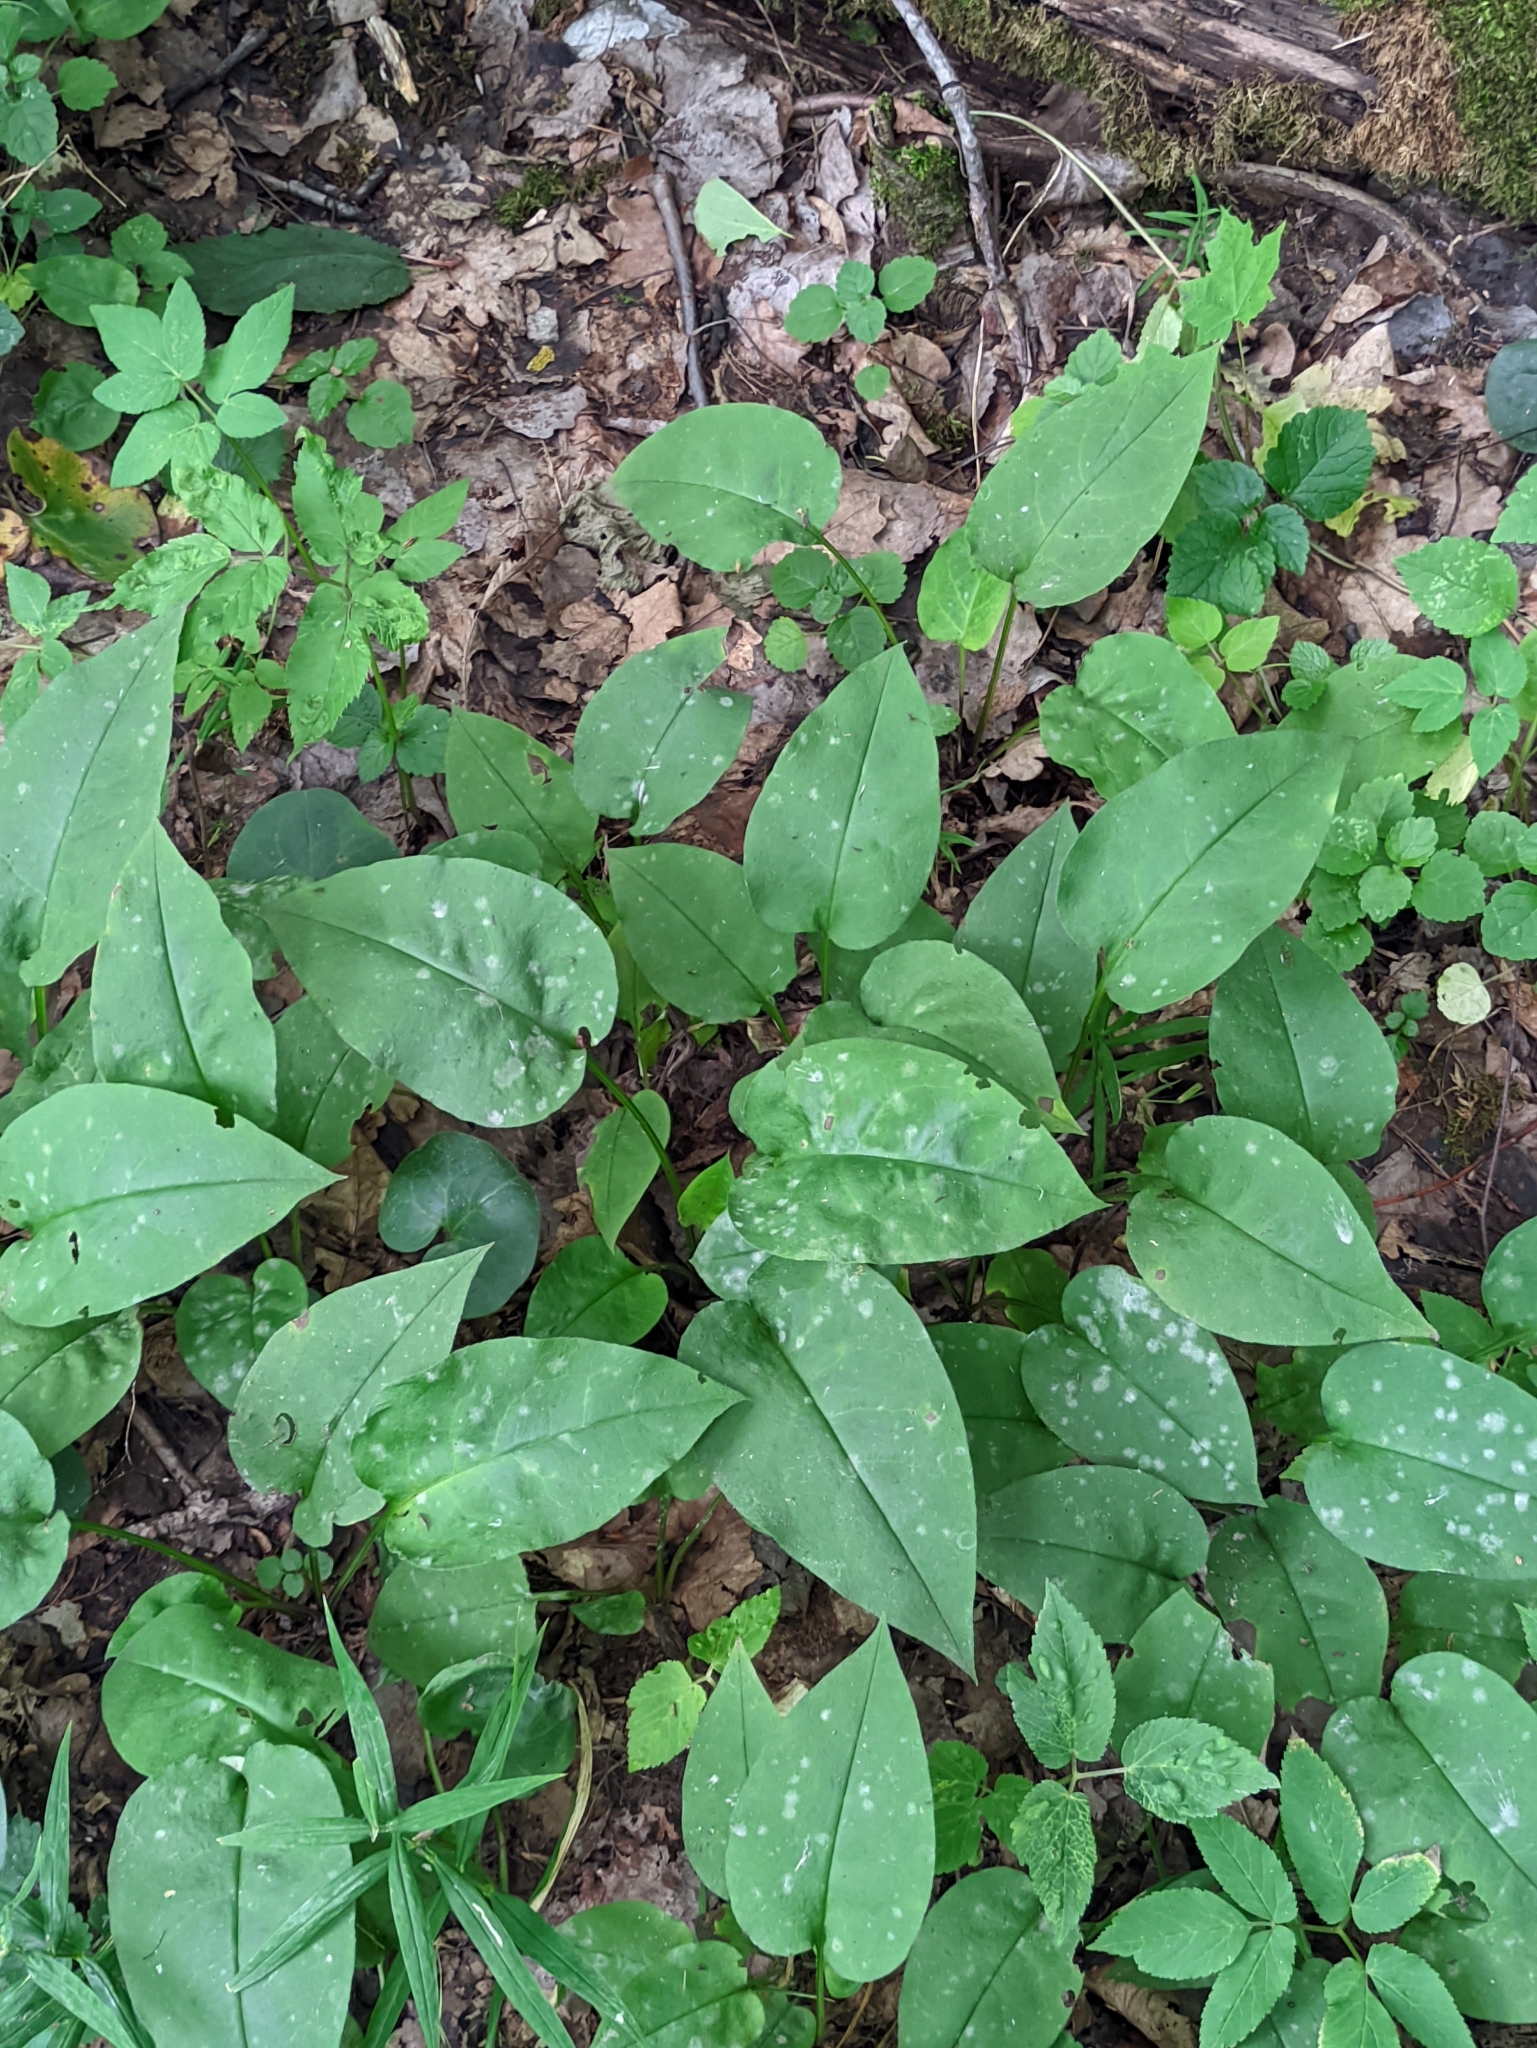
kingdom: Plantae
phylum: Tracheophyta
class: Magnoliopsida
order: Boraginales
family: Boraginaceae
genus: Pulmonaria
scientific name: Pulmonaria obscura
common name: Suffolk lungwort
